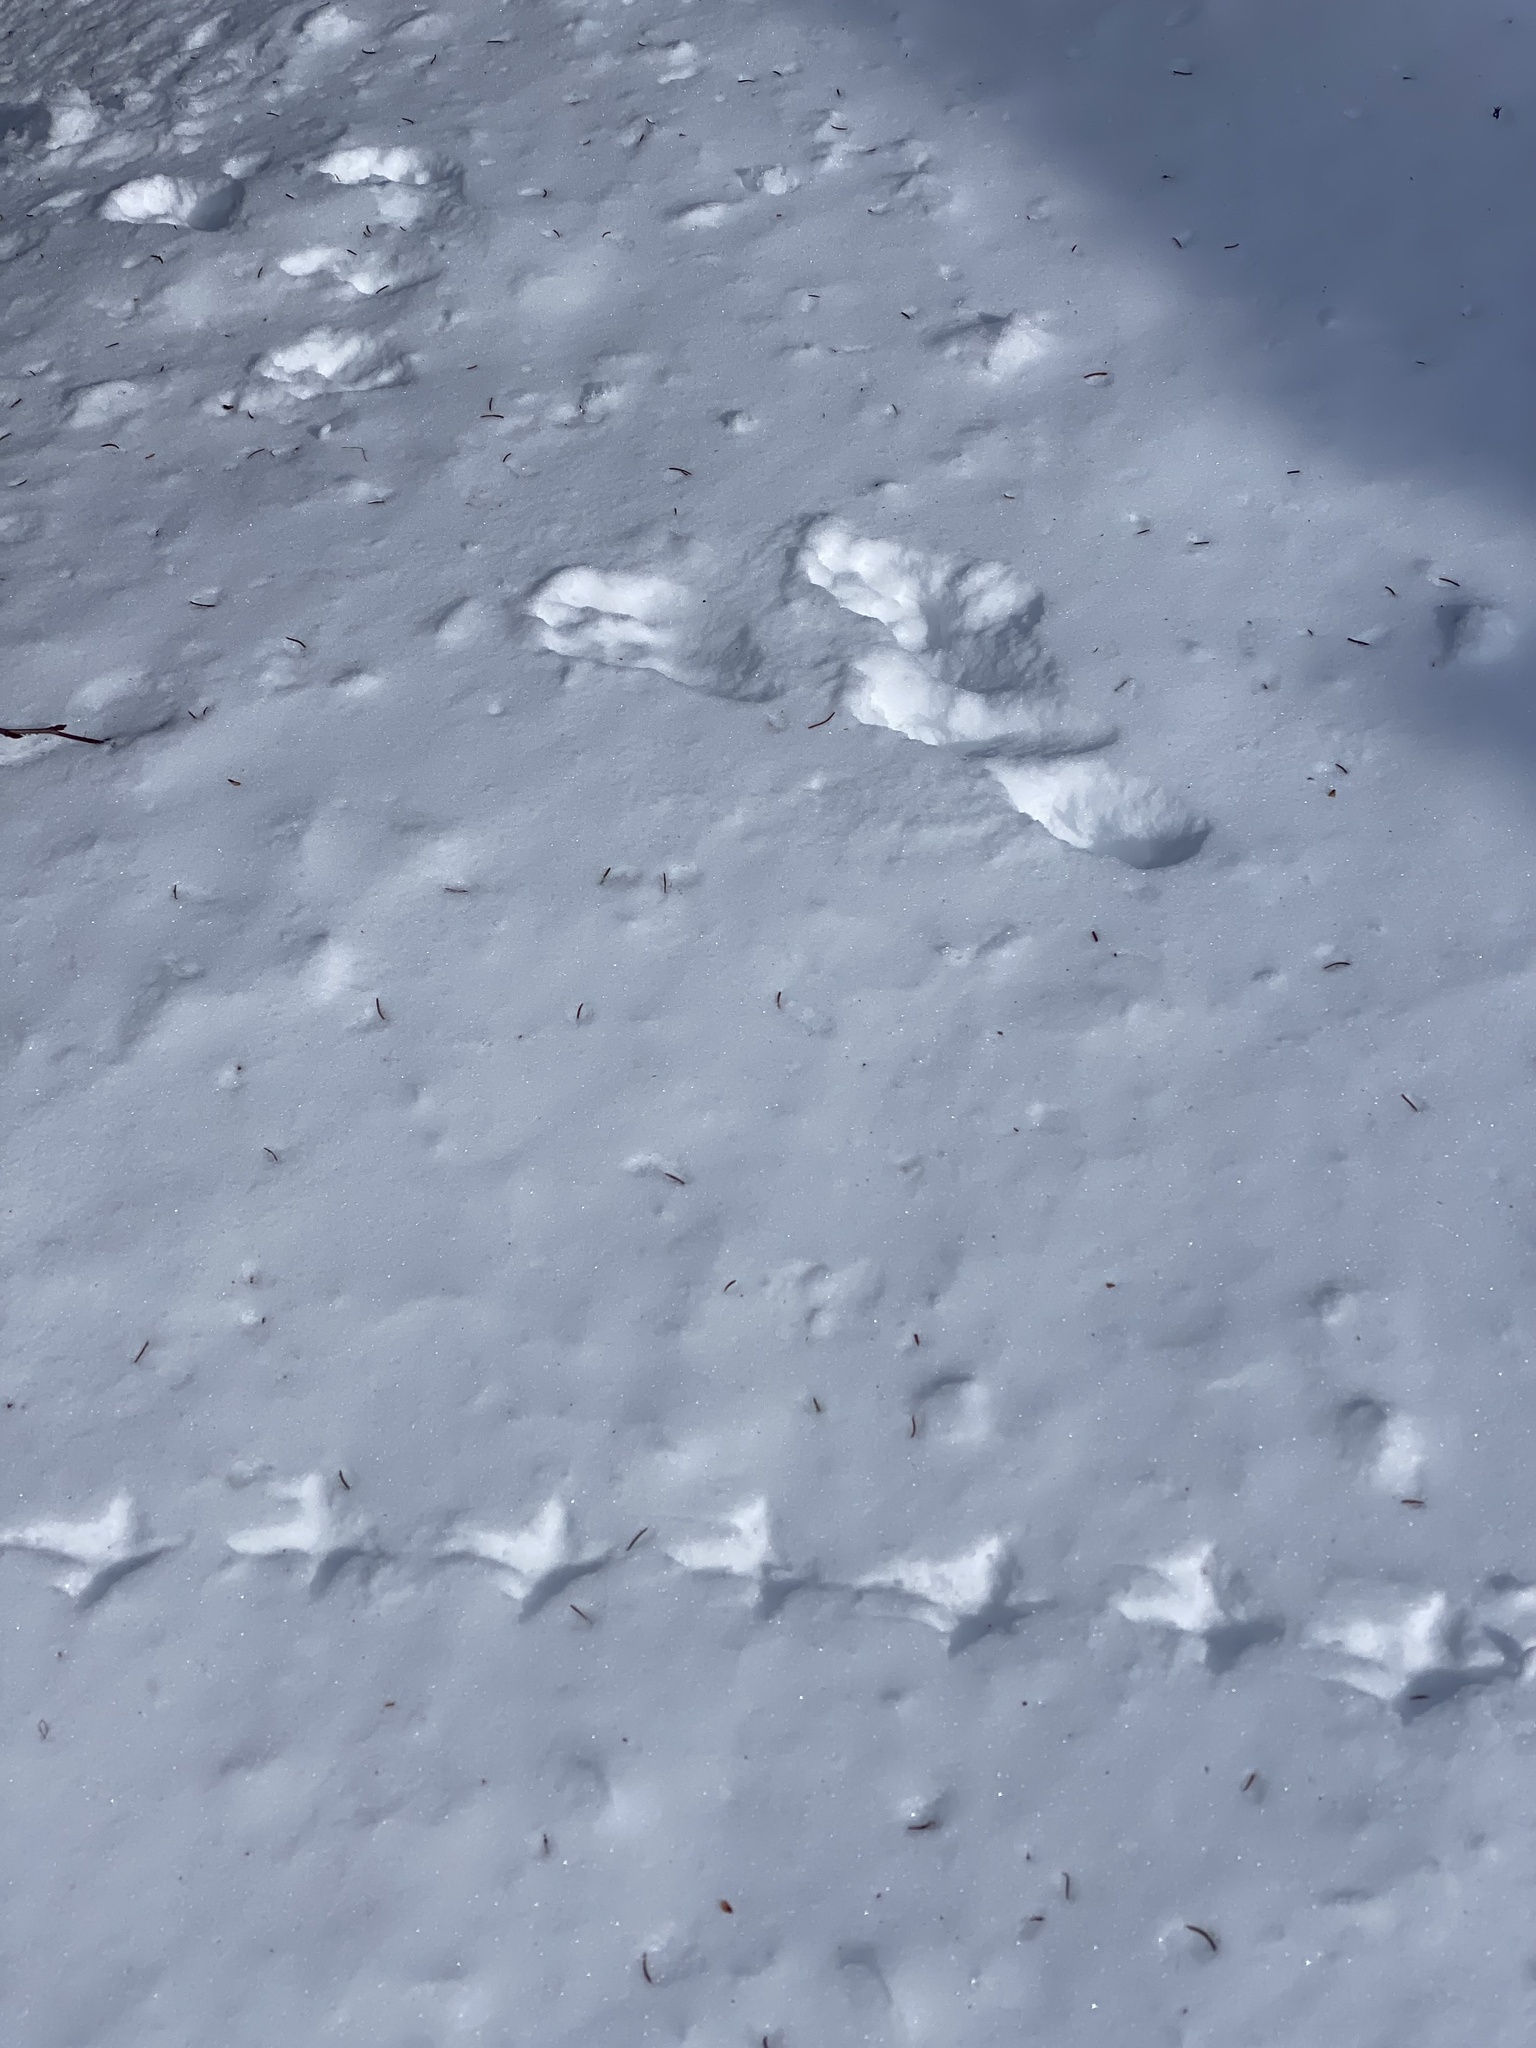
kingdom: Animalia
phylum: Chordata
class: Aves
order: Galliformes
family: Phasianidae
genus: Bonasa
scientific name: Bonasa umbellus
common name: Ruffed grouse
